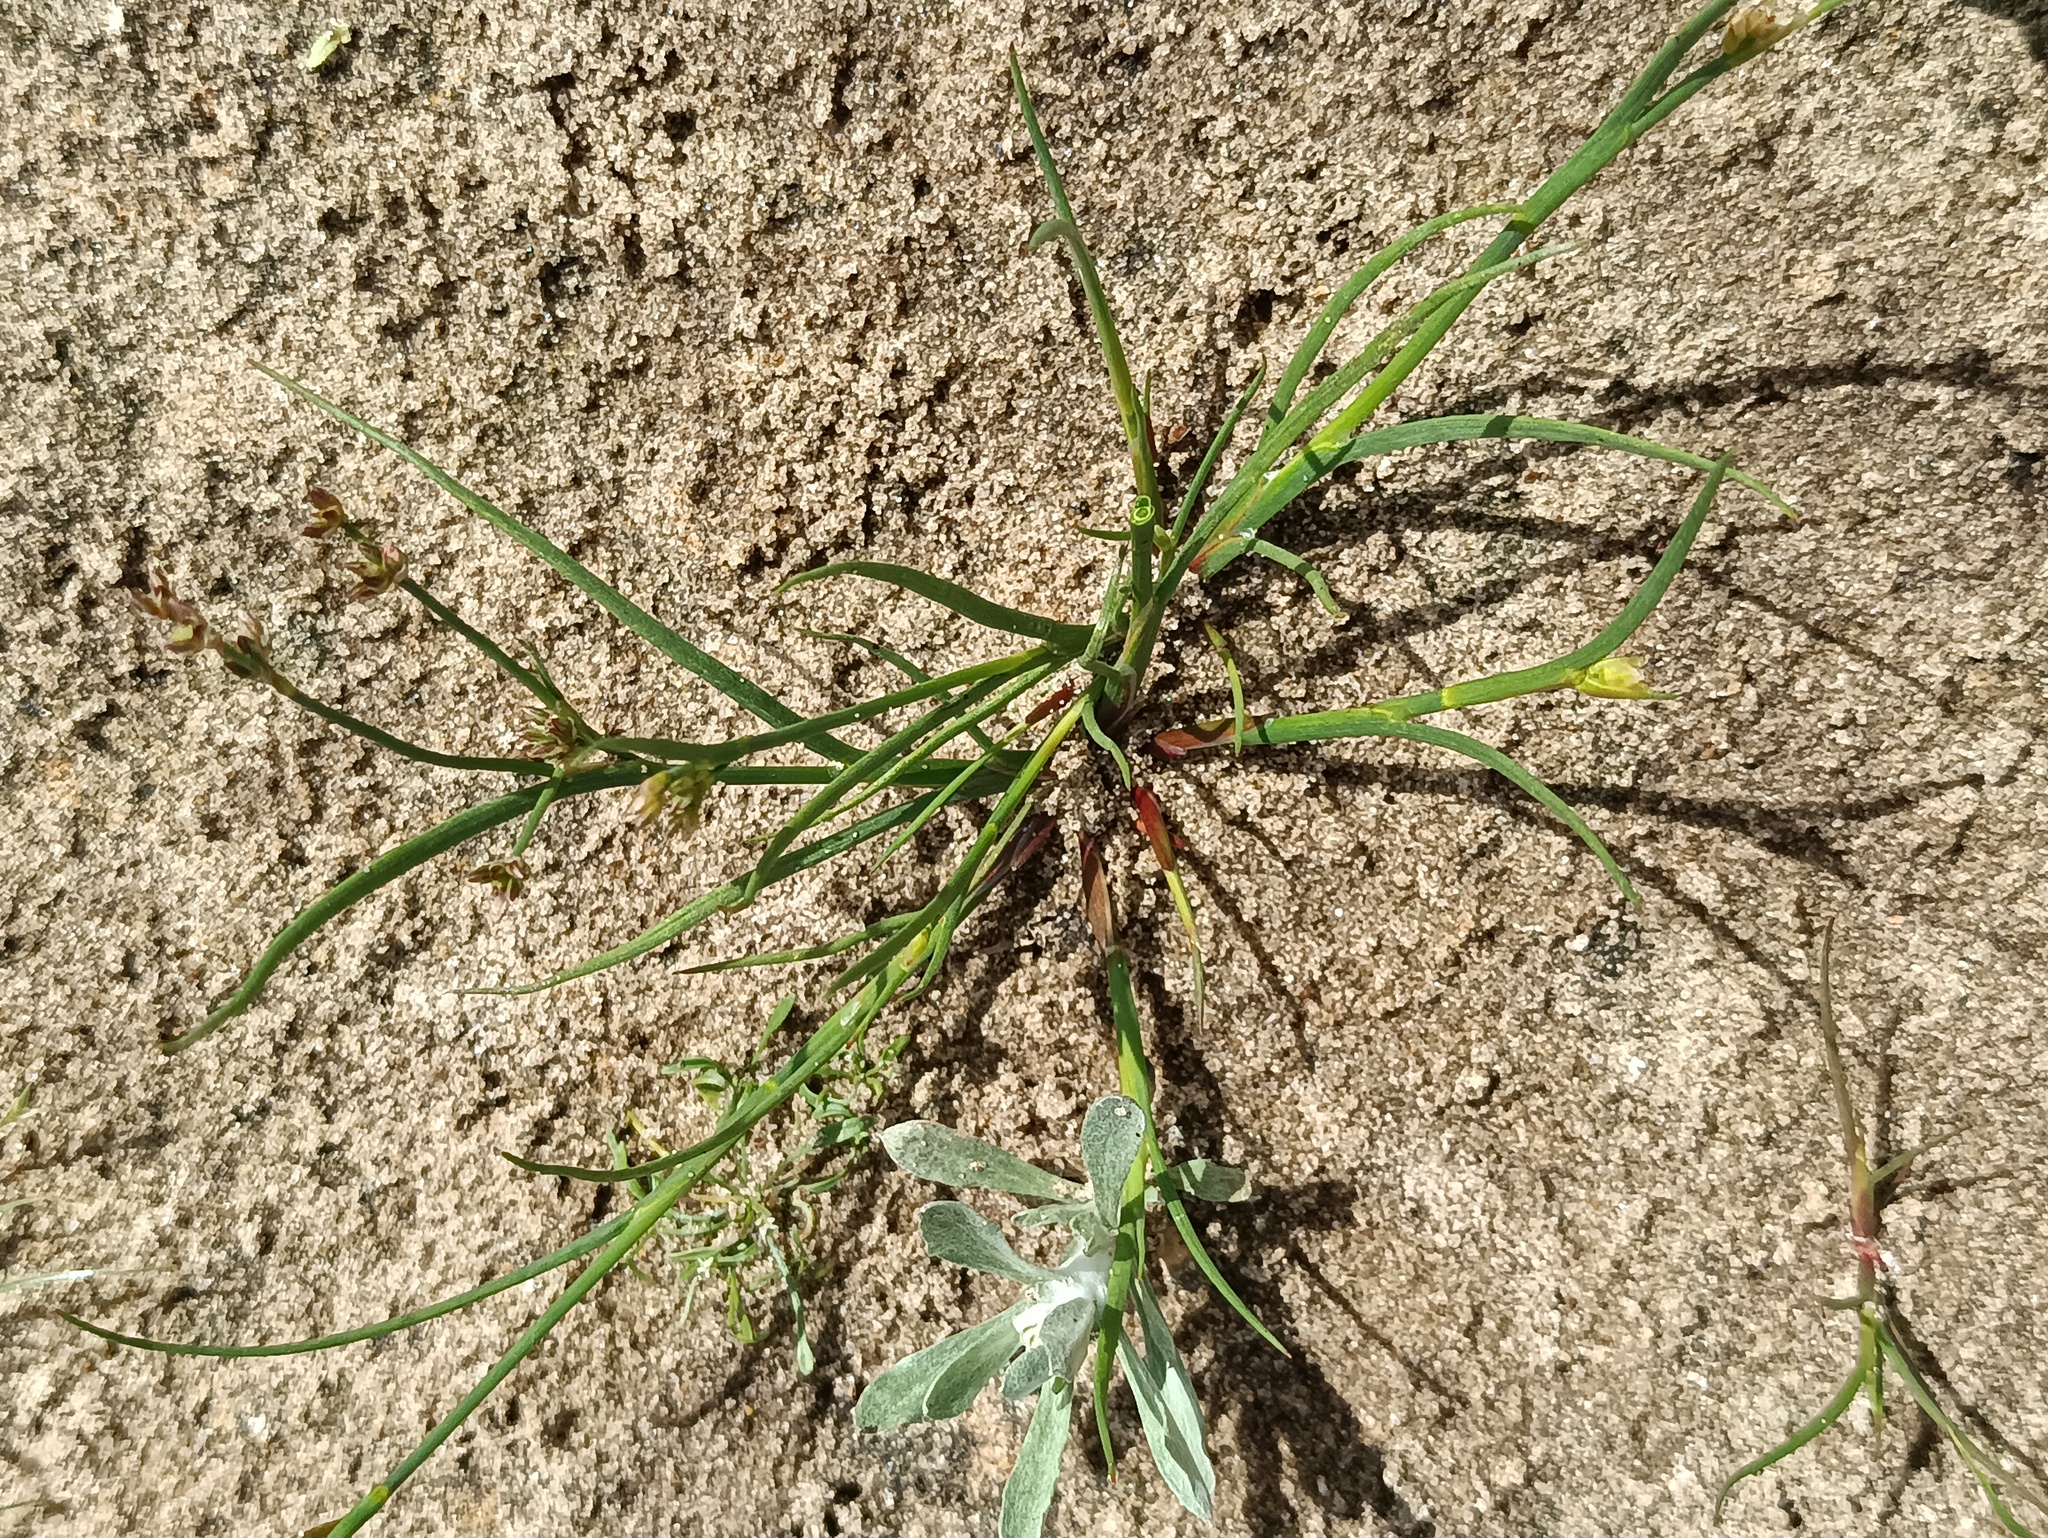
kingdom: Plantae
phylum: Tracheophyta
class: Liliopsida
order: Poales
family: Juncaceae
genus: Juncus
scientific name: Juncus articulatus
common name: Jointed rush
